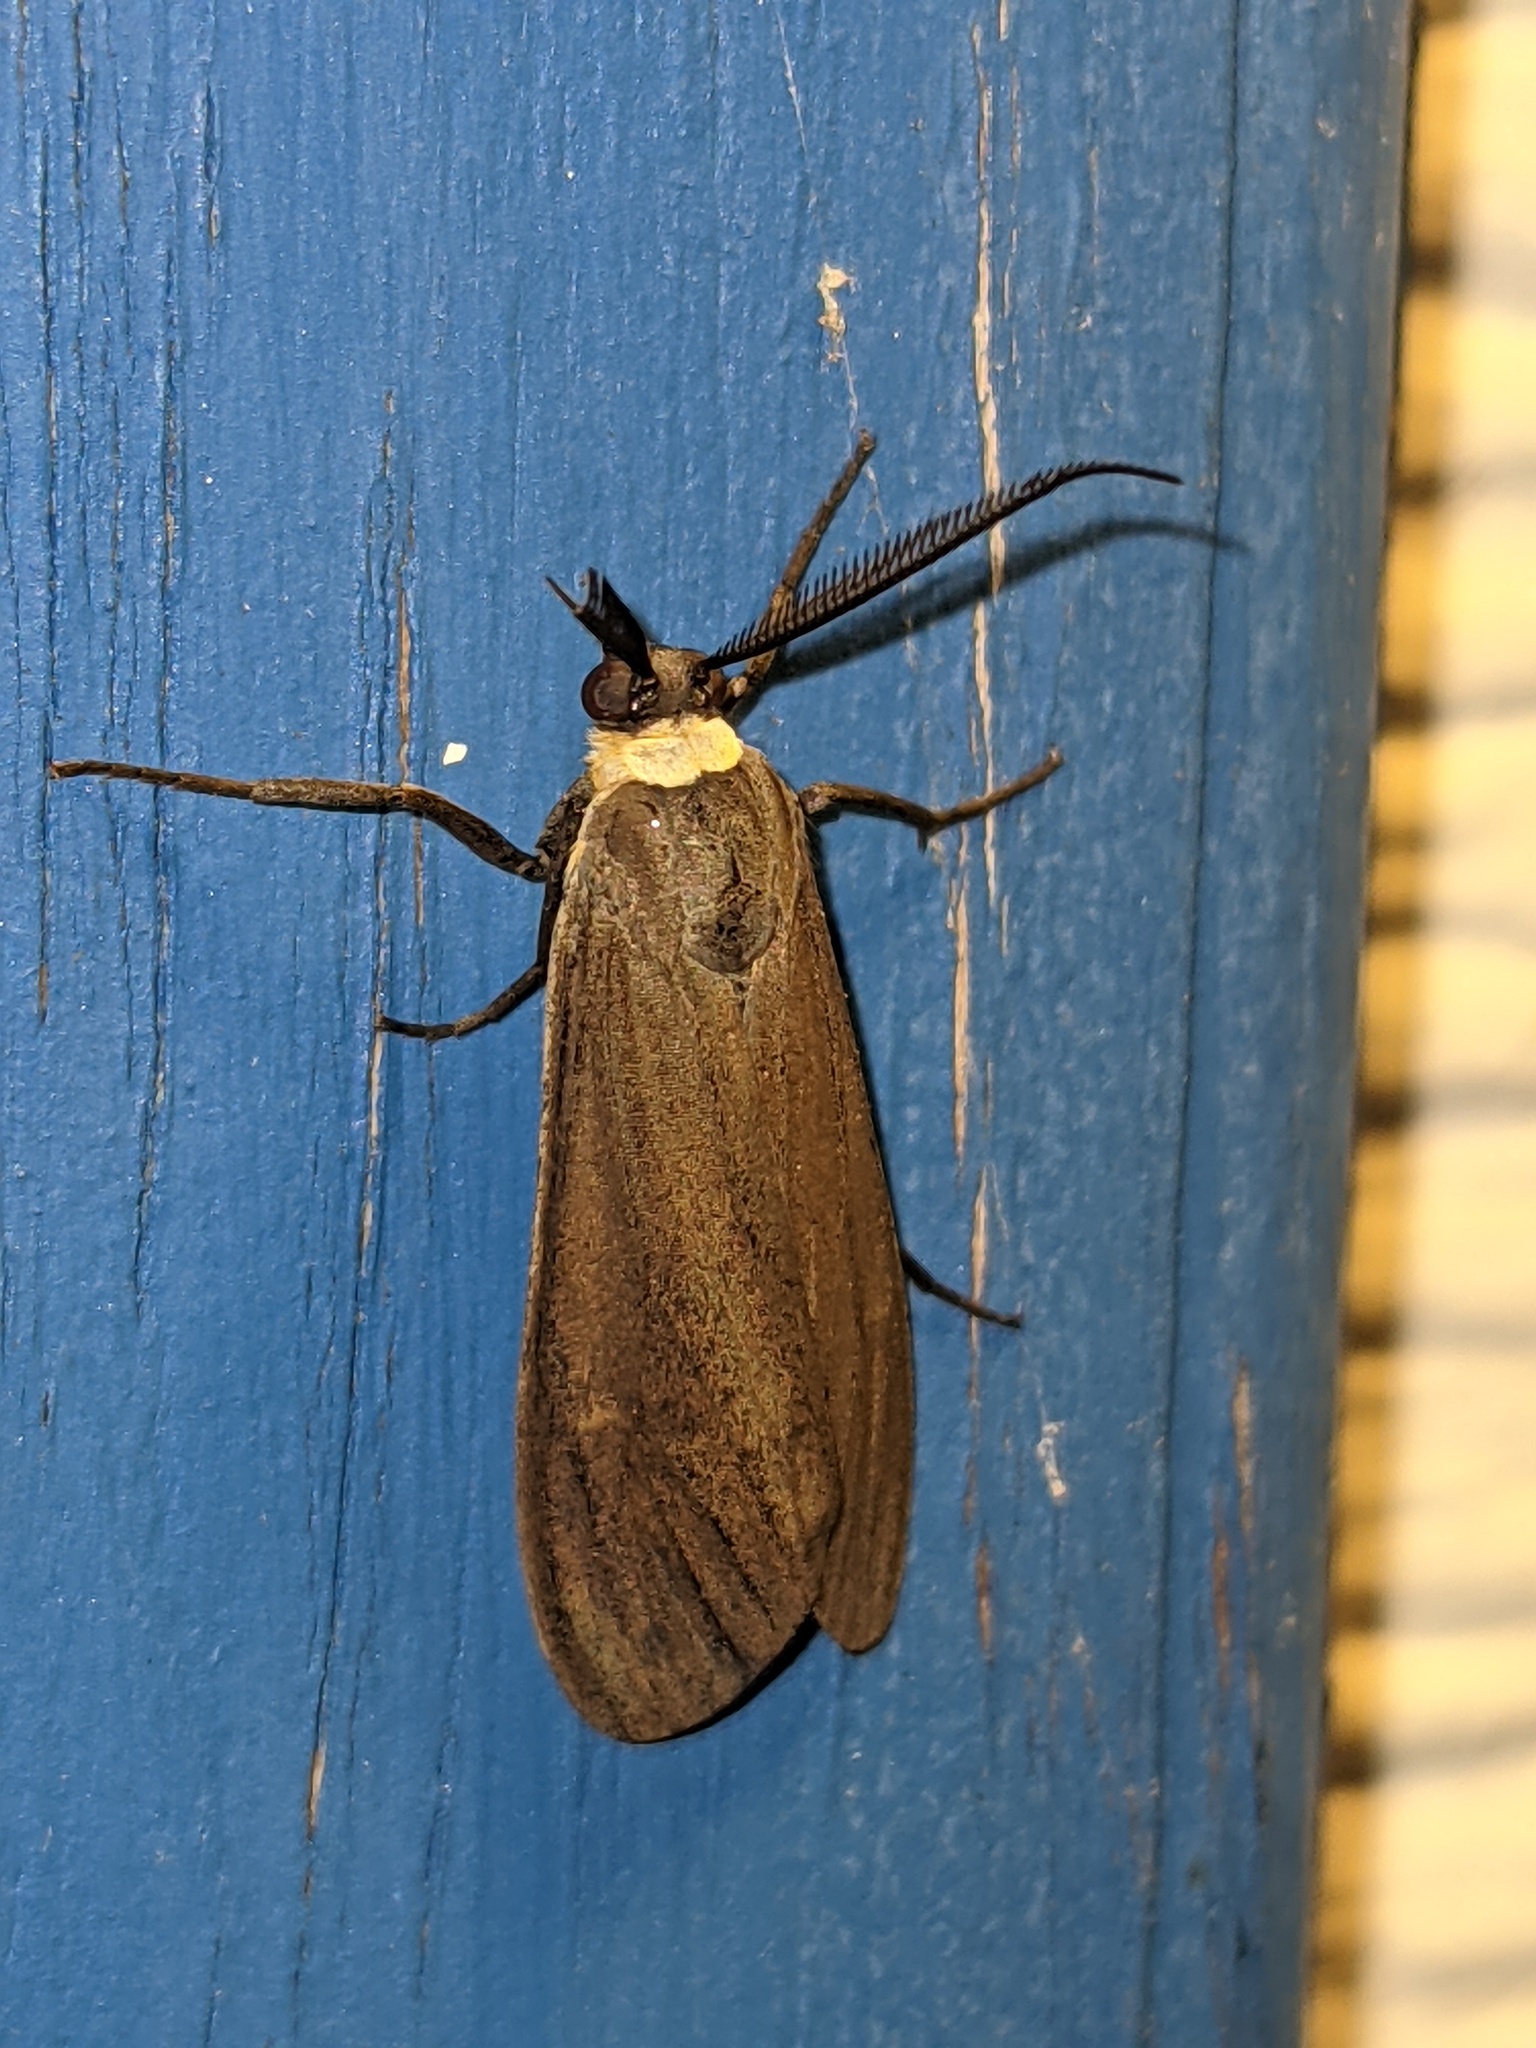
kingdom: Animalia
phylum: Arthropoda
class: Insecta
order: Lepidoptera
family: Erebidae
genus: Cisseps
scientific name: Cisseps fulvicollis
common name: Yellow-collared scape moth
